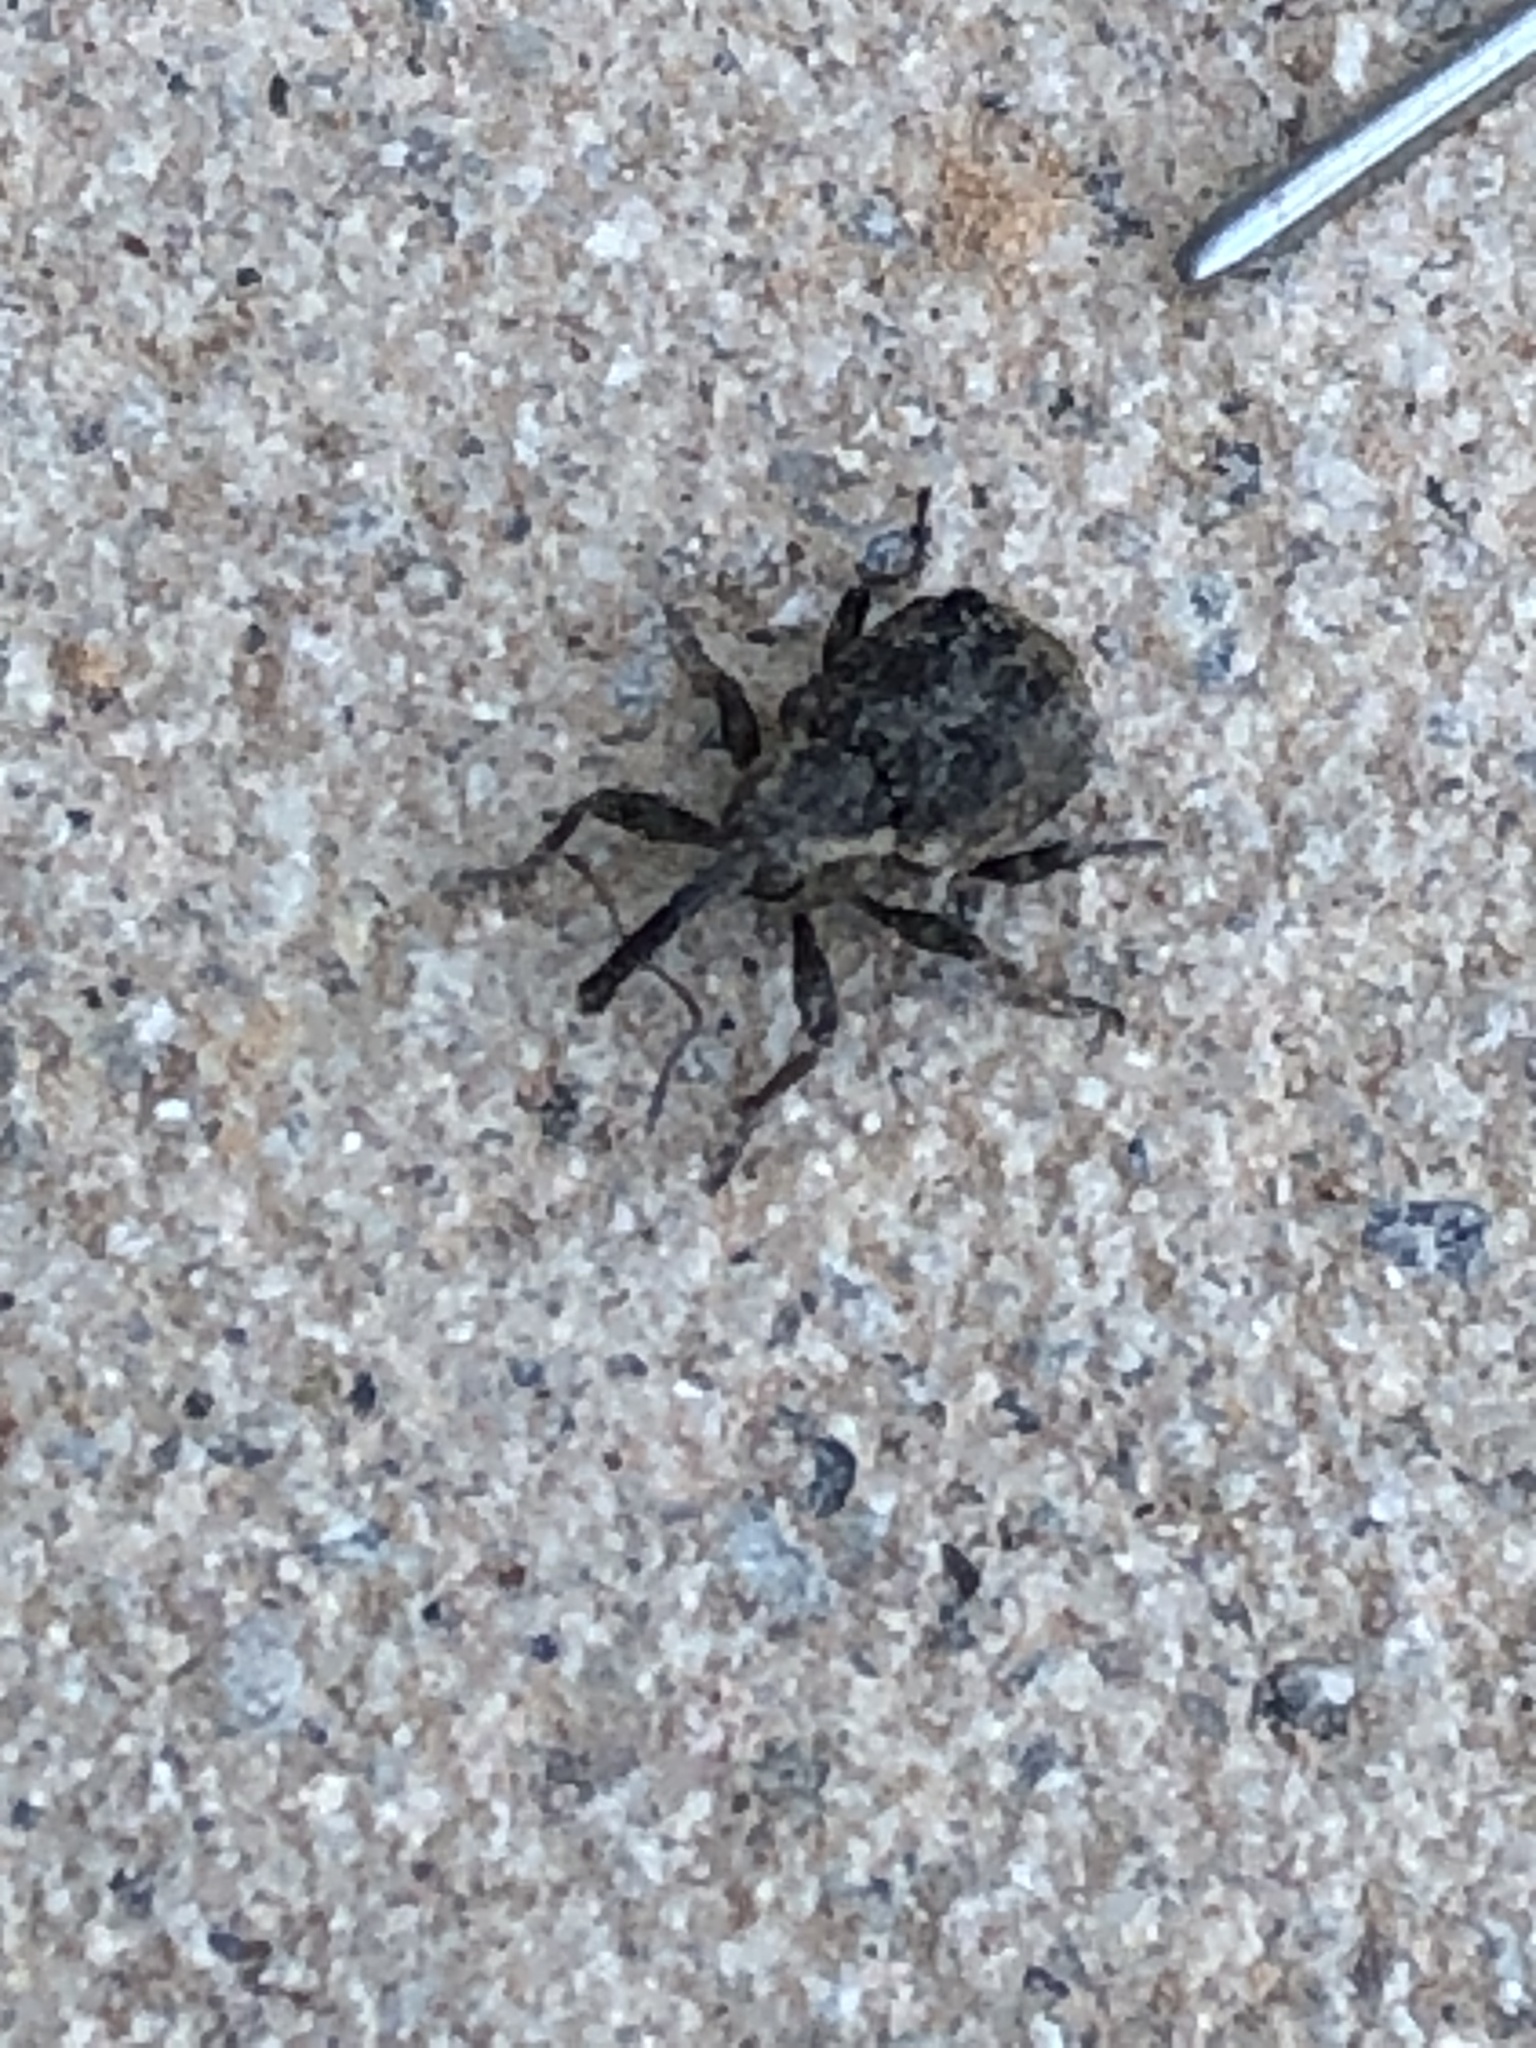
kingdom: Animalia
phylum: Arthropoda
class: Insecta
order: Coleoptera
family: Brachyceridae
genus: Grypus
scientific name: Grypus equiseti
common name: Horsetail weevil
